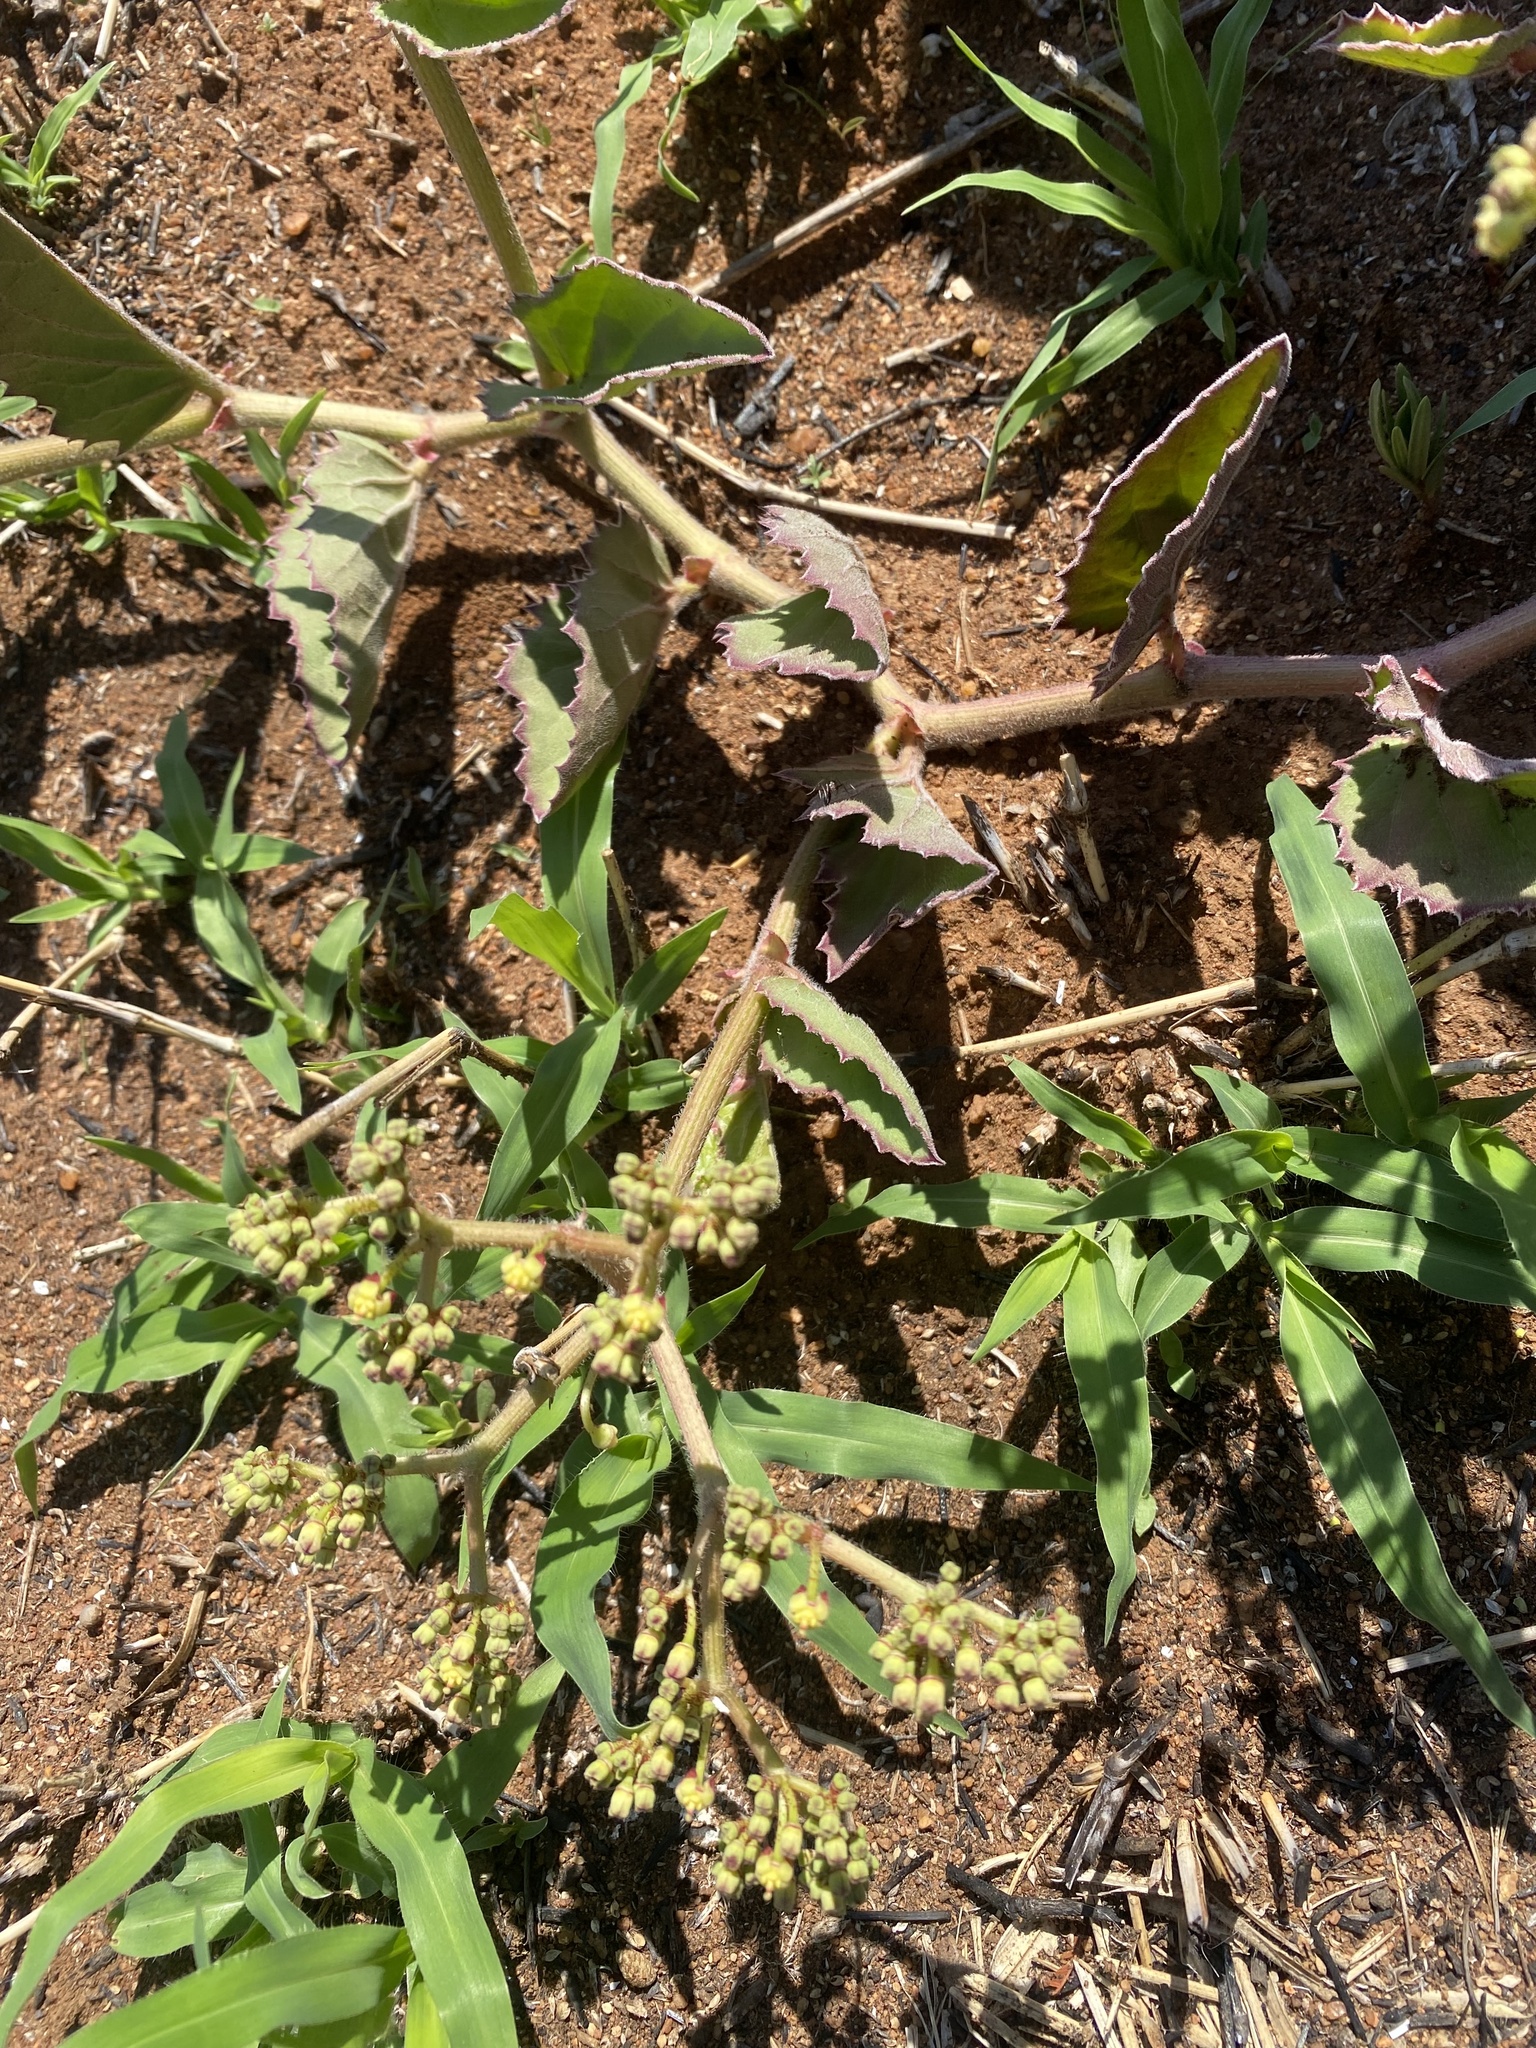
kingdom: Plantae
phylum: Tracheophyta
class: Magnoliopsida
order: Vitales
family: Vitaceae
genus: Cyphostemma
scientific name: Cyphostemma humile
